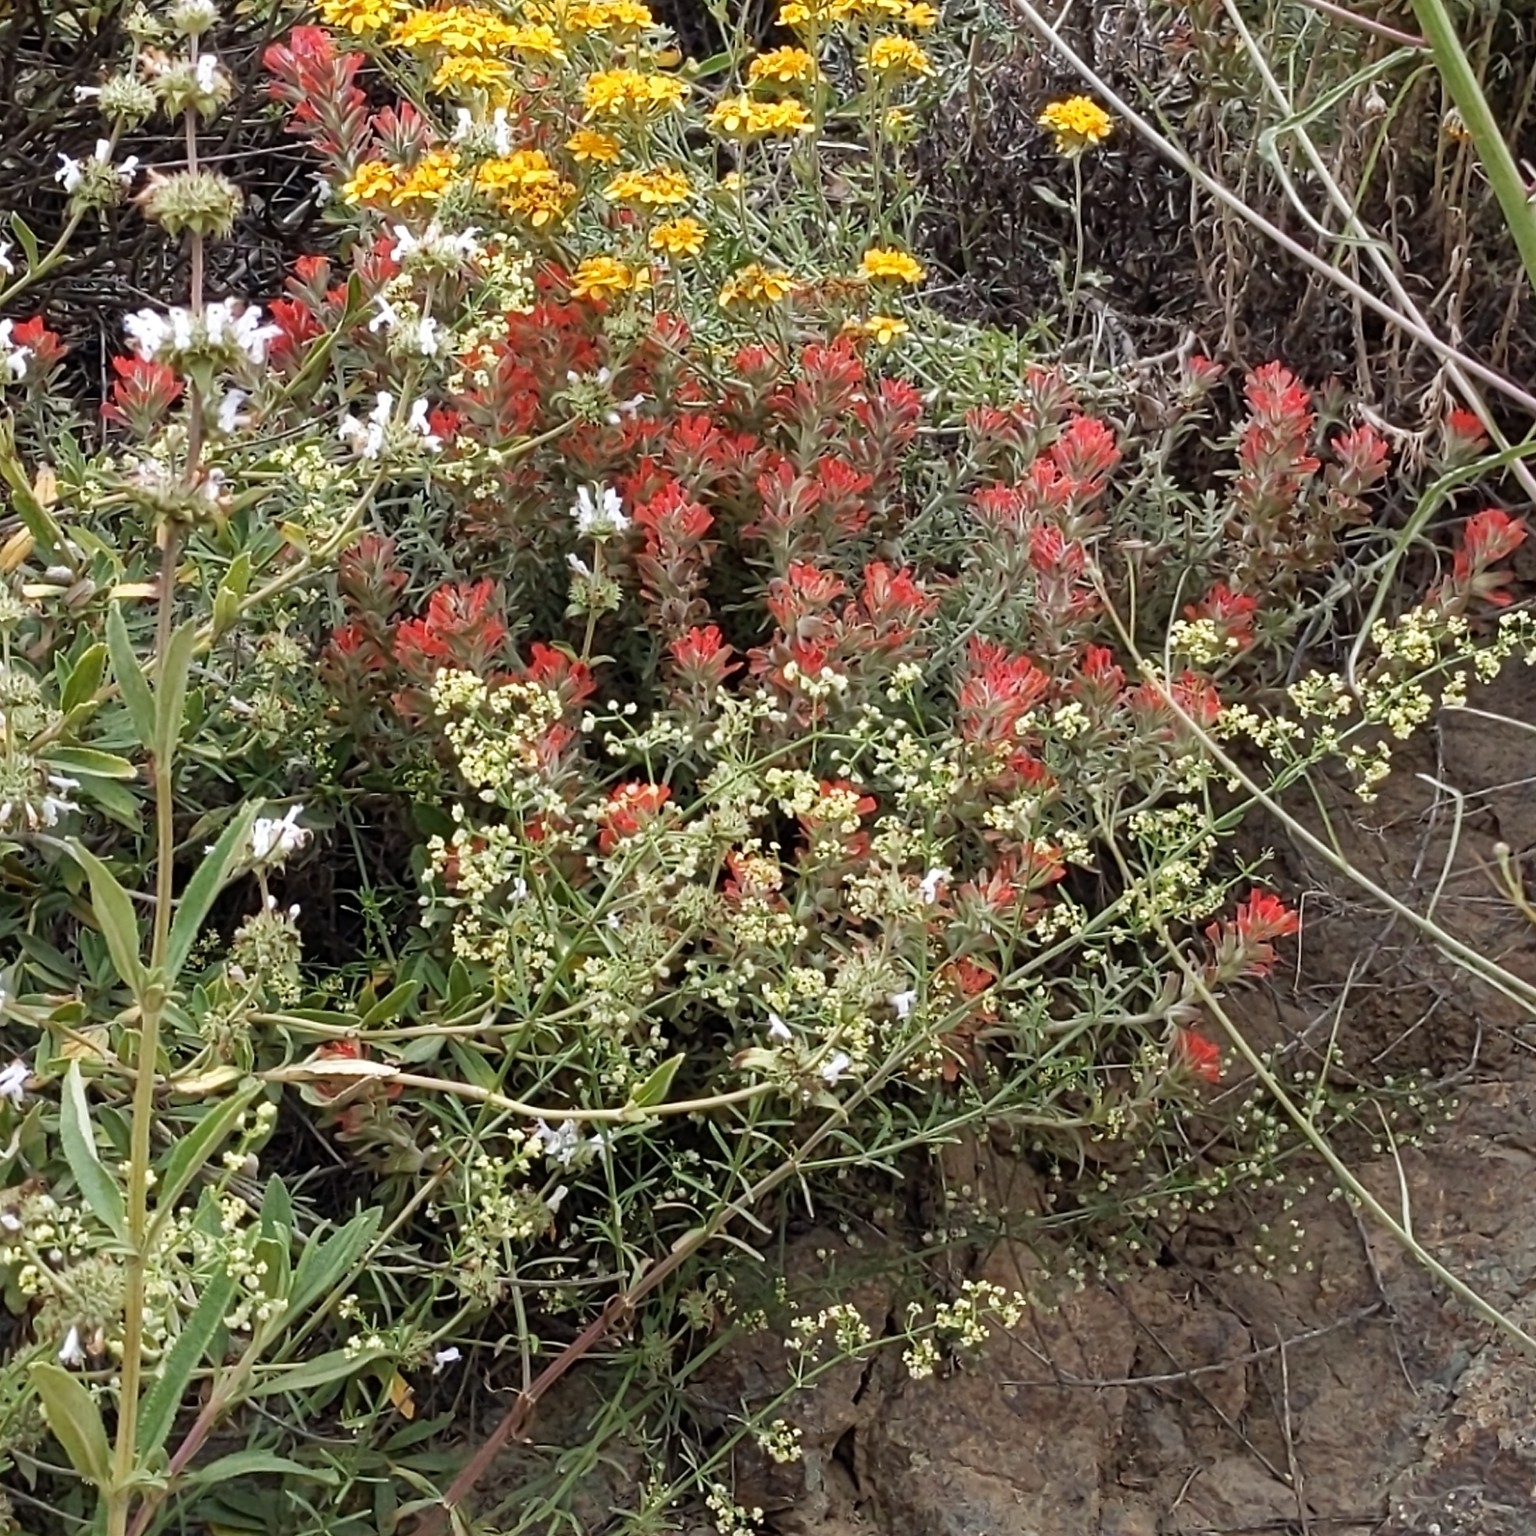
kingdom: Plantae
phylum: Tracheophyta
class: Magnoliopsida
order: Lamiales
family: Orobanchaceae
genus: Castilleja
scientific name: Castilleja foliolosa
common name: Woolly indian paintbrush
